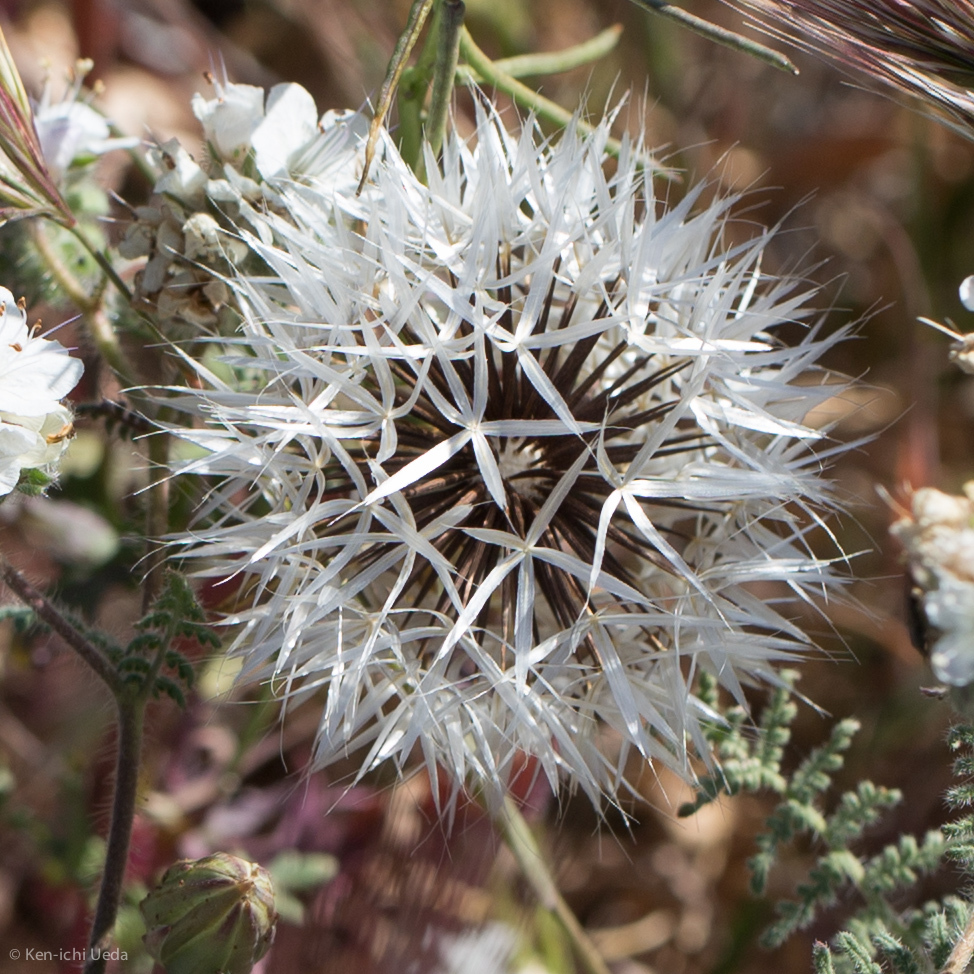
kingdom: Plantae
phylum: Tracheophyta
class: Magnoliopsida
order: Asterales
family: Asteraceae
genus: Microseris
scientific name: Microseris lindleyi
